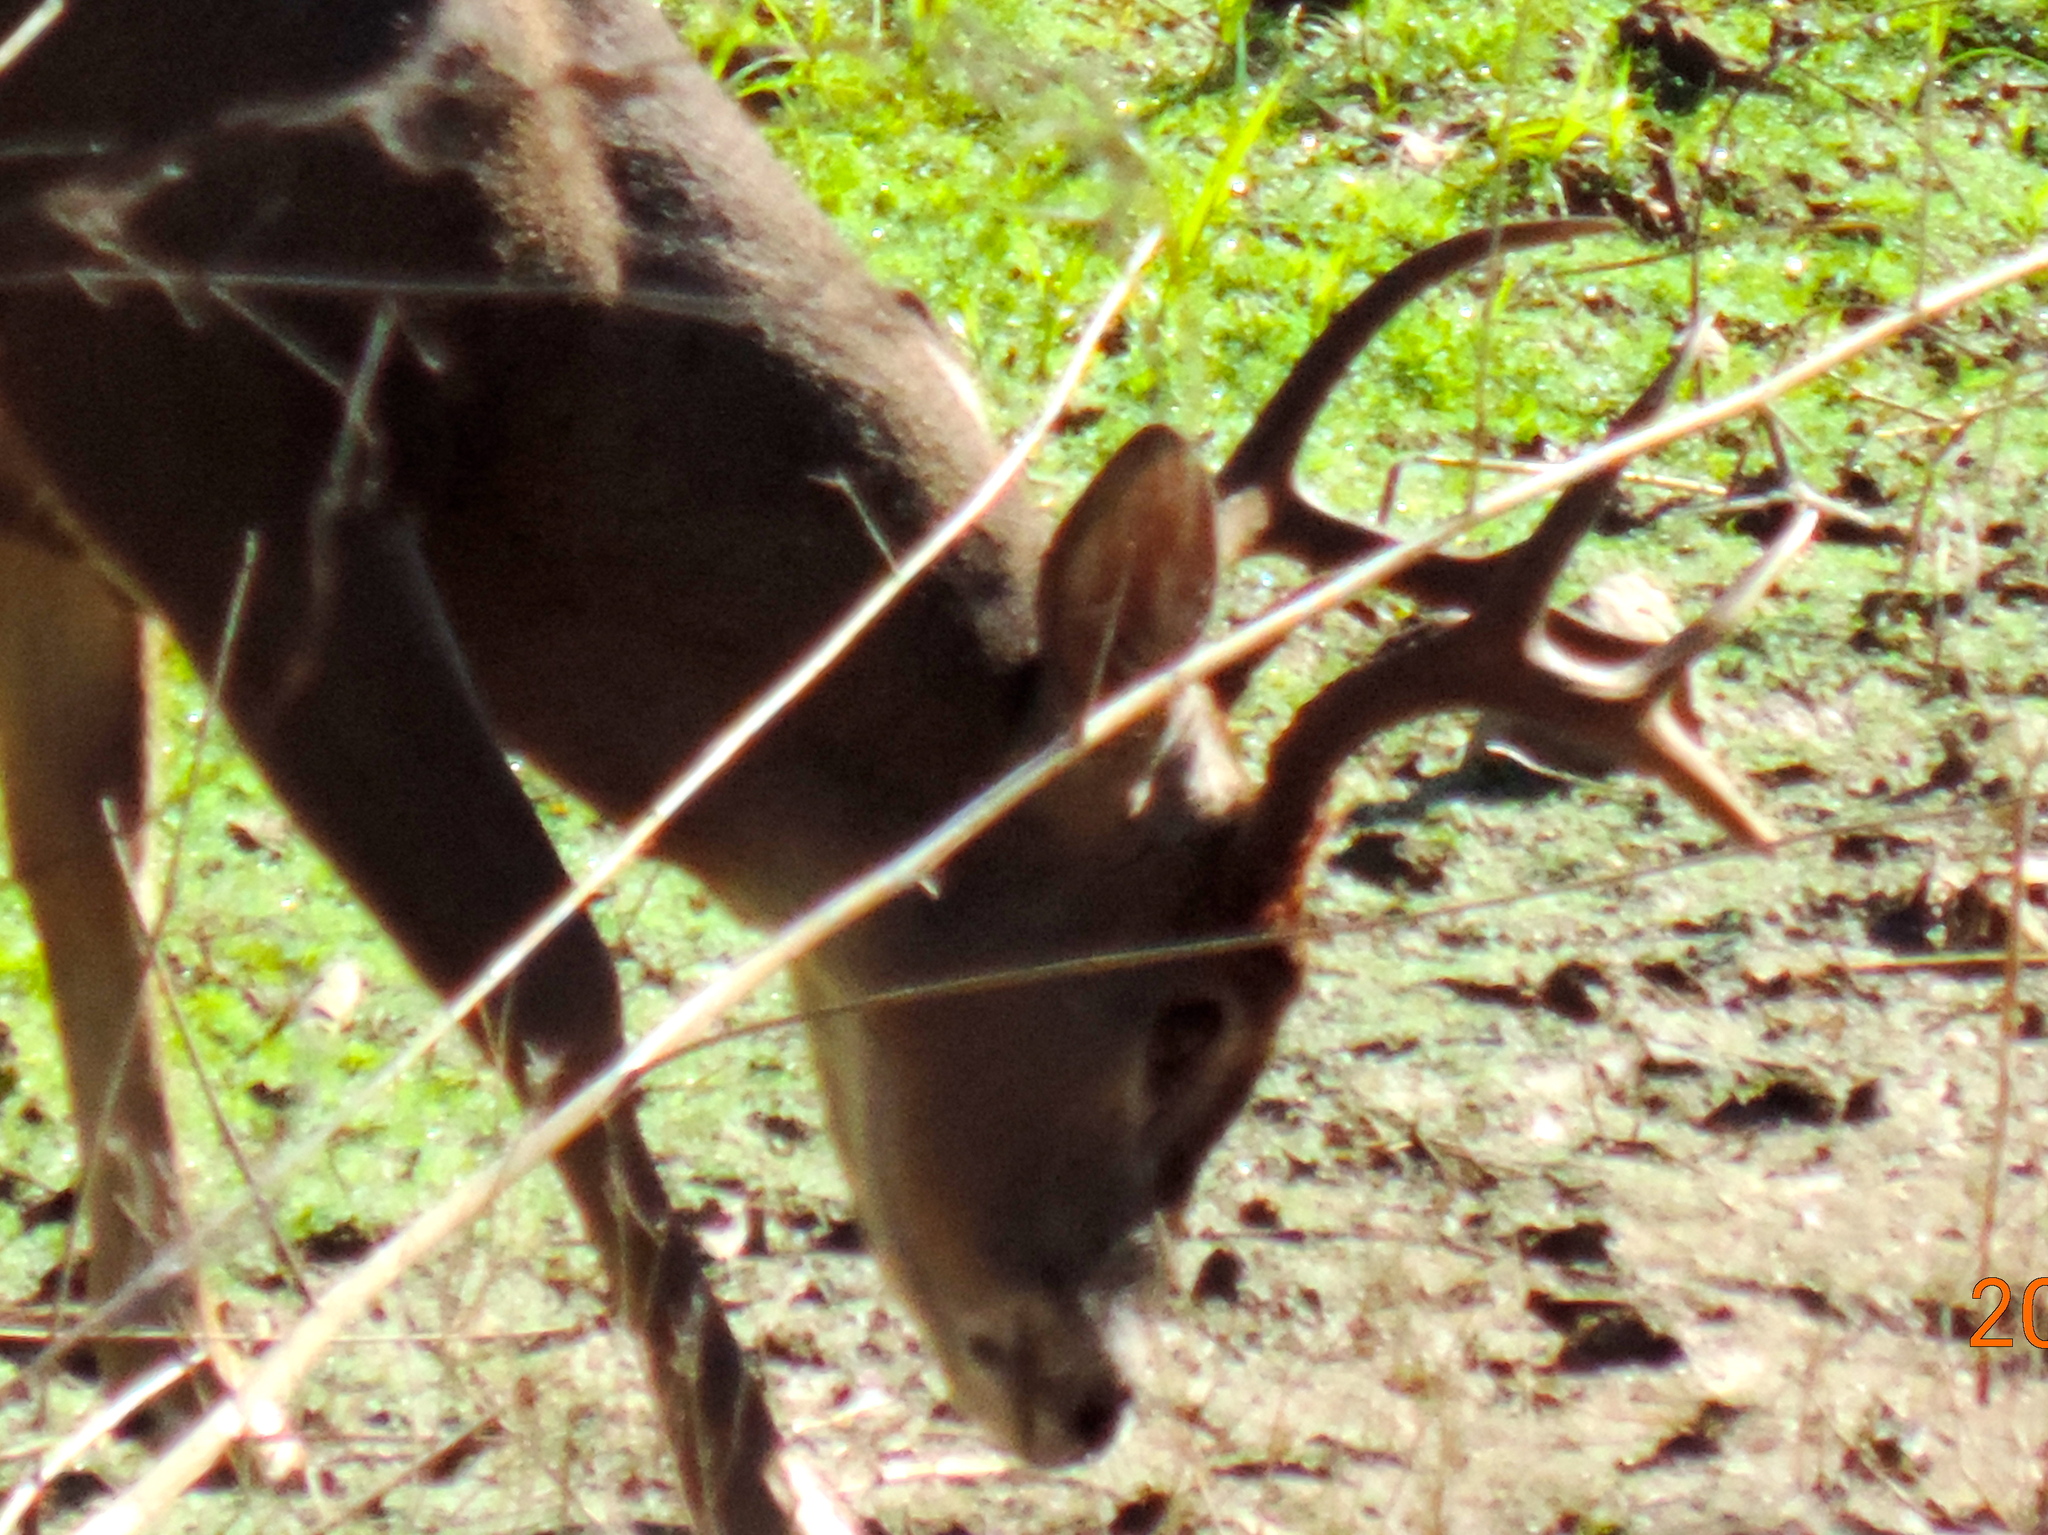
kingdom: Animalia
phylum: Chordata
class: Mammalia
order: Artiodactyla
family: Cervidae
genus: Odocoileus
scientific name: Odocoileus virginianus
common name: White-tailed deer
